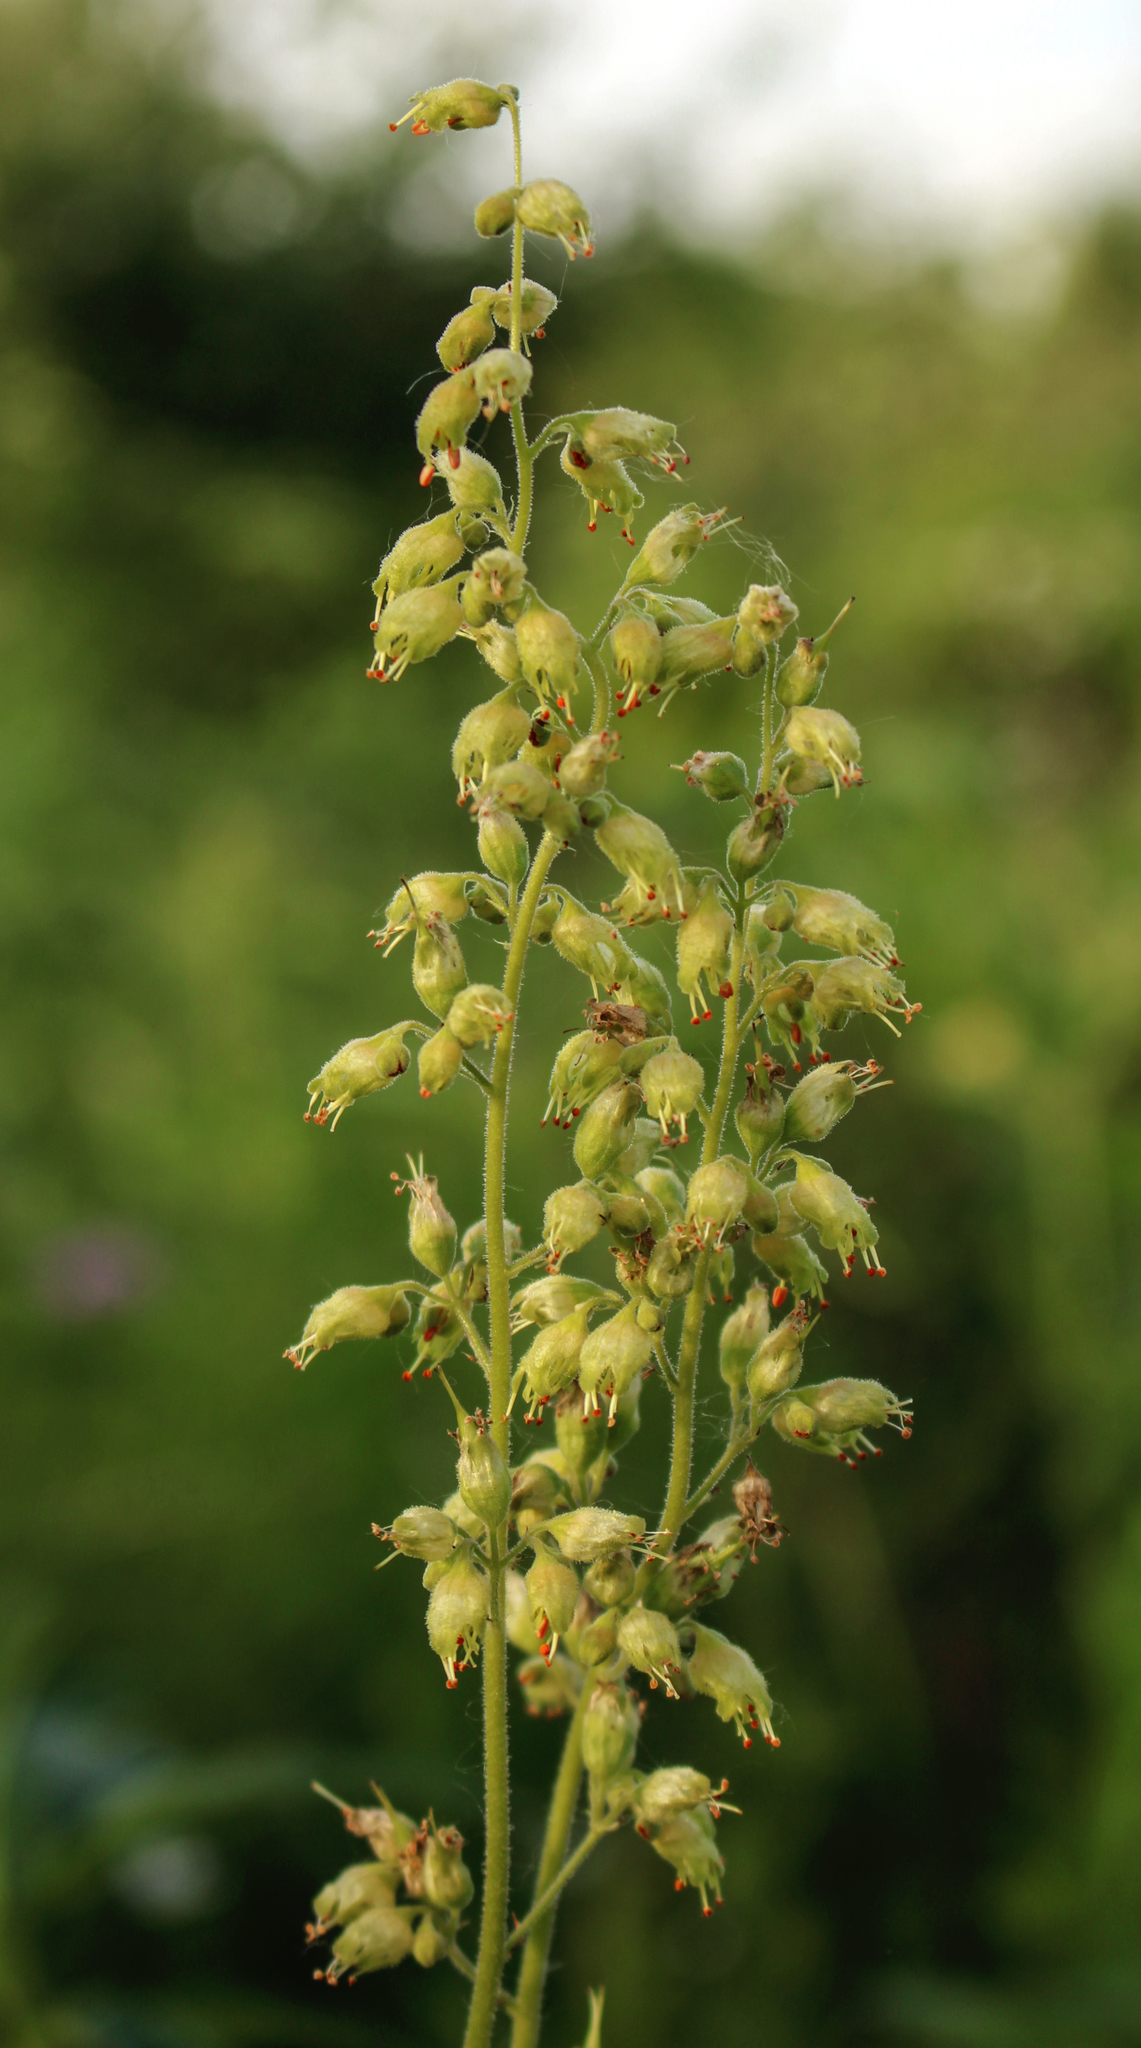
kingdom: Plantae
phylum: Tracheophyta
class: Magnoliopsida
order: Saxifragales
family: Saxifragaceae
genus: Heuchera
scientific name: Heuchera richardsonii
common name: Richardson's alumroot
